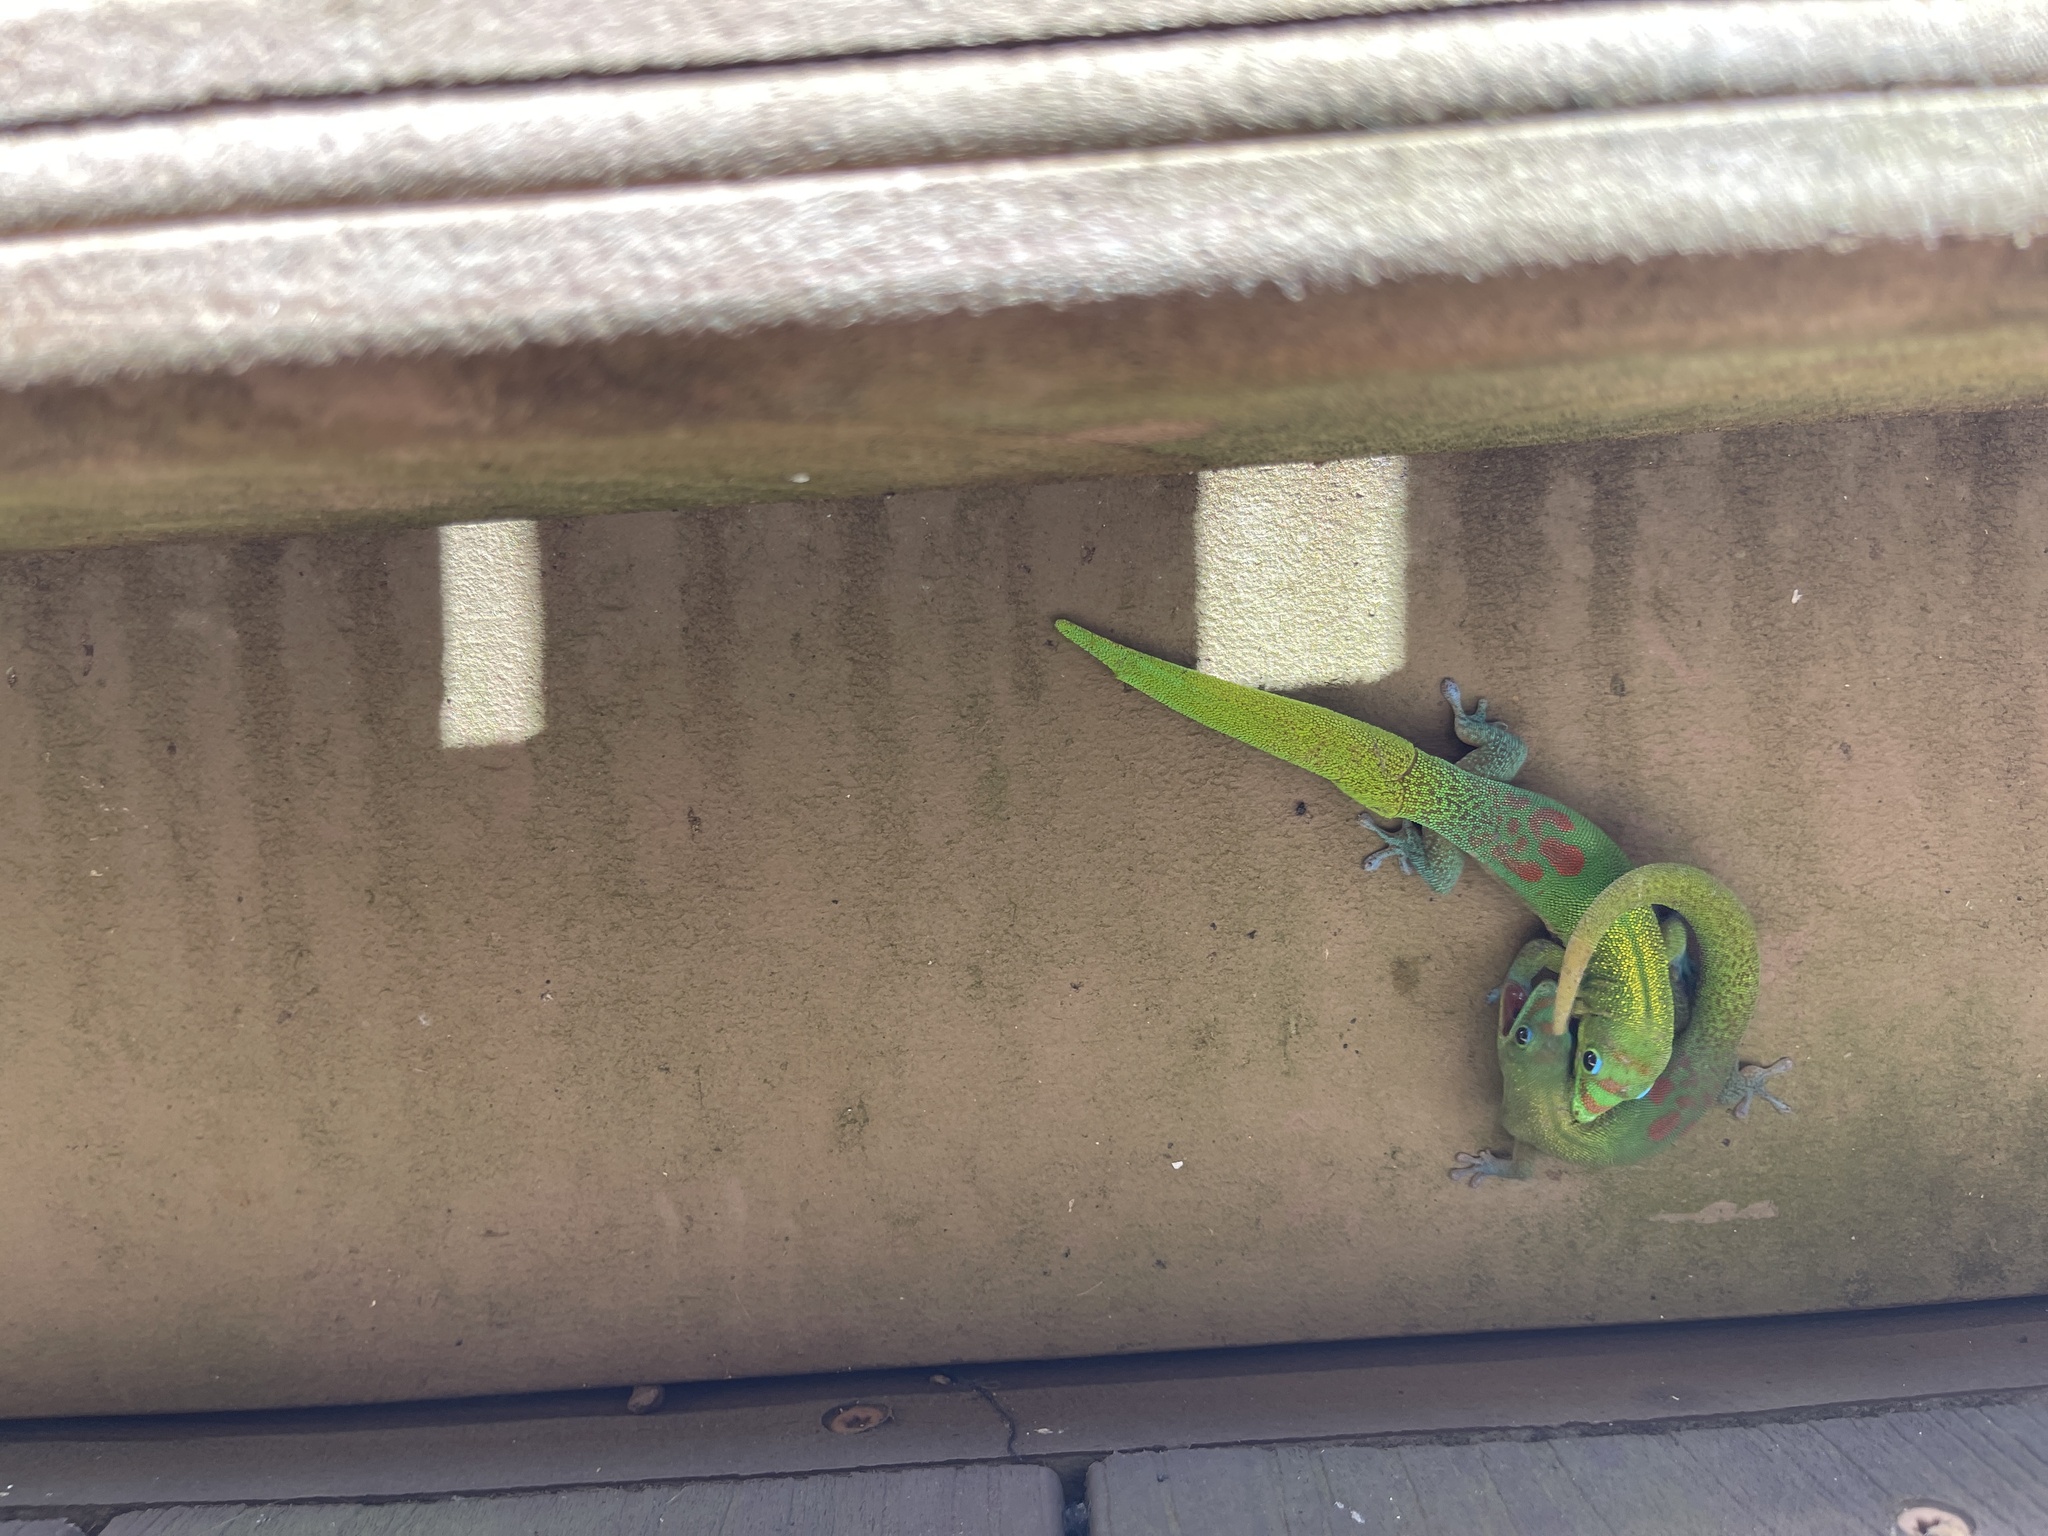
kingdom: Animalia
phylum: Chordata
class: Squamata
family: Gekkonidae
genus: Phelsuma
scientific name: Phelsuma laticauda
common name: Gold dust day gecko
